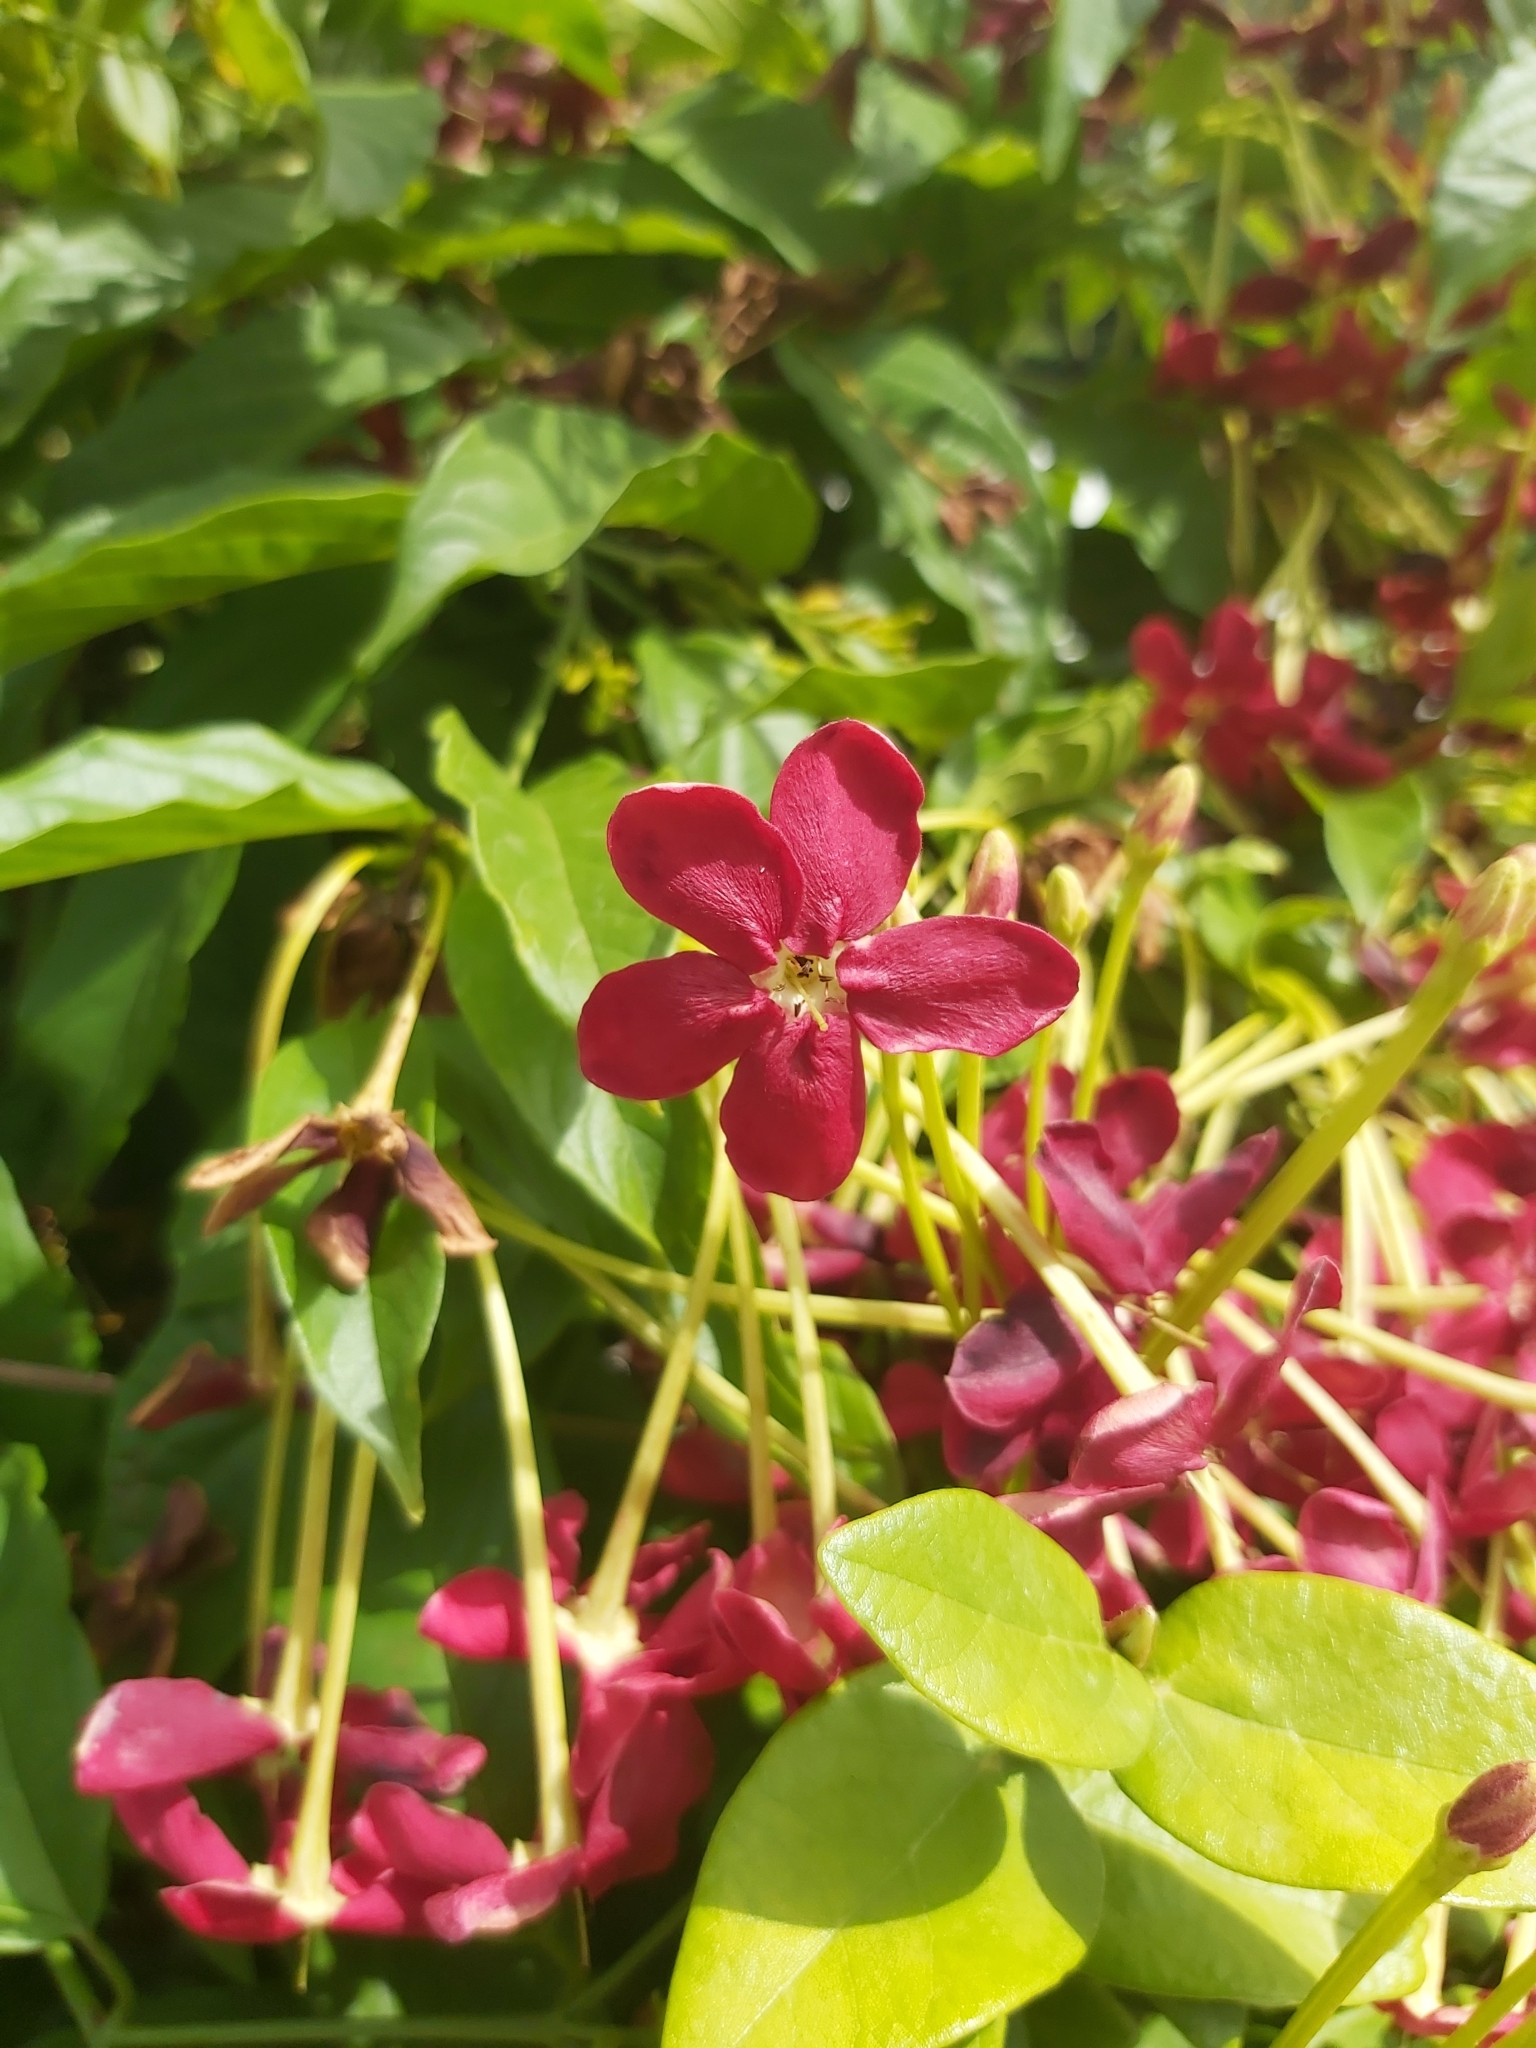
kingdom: Plantae
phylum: Tracheophyta
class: Magnoliopsida
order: Myrtales
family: Combretaceae
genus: Combretum
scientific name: Combretum indicum
